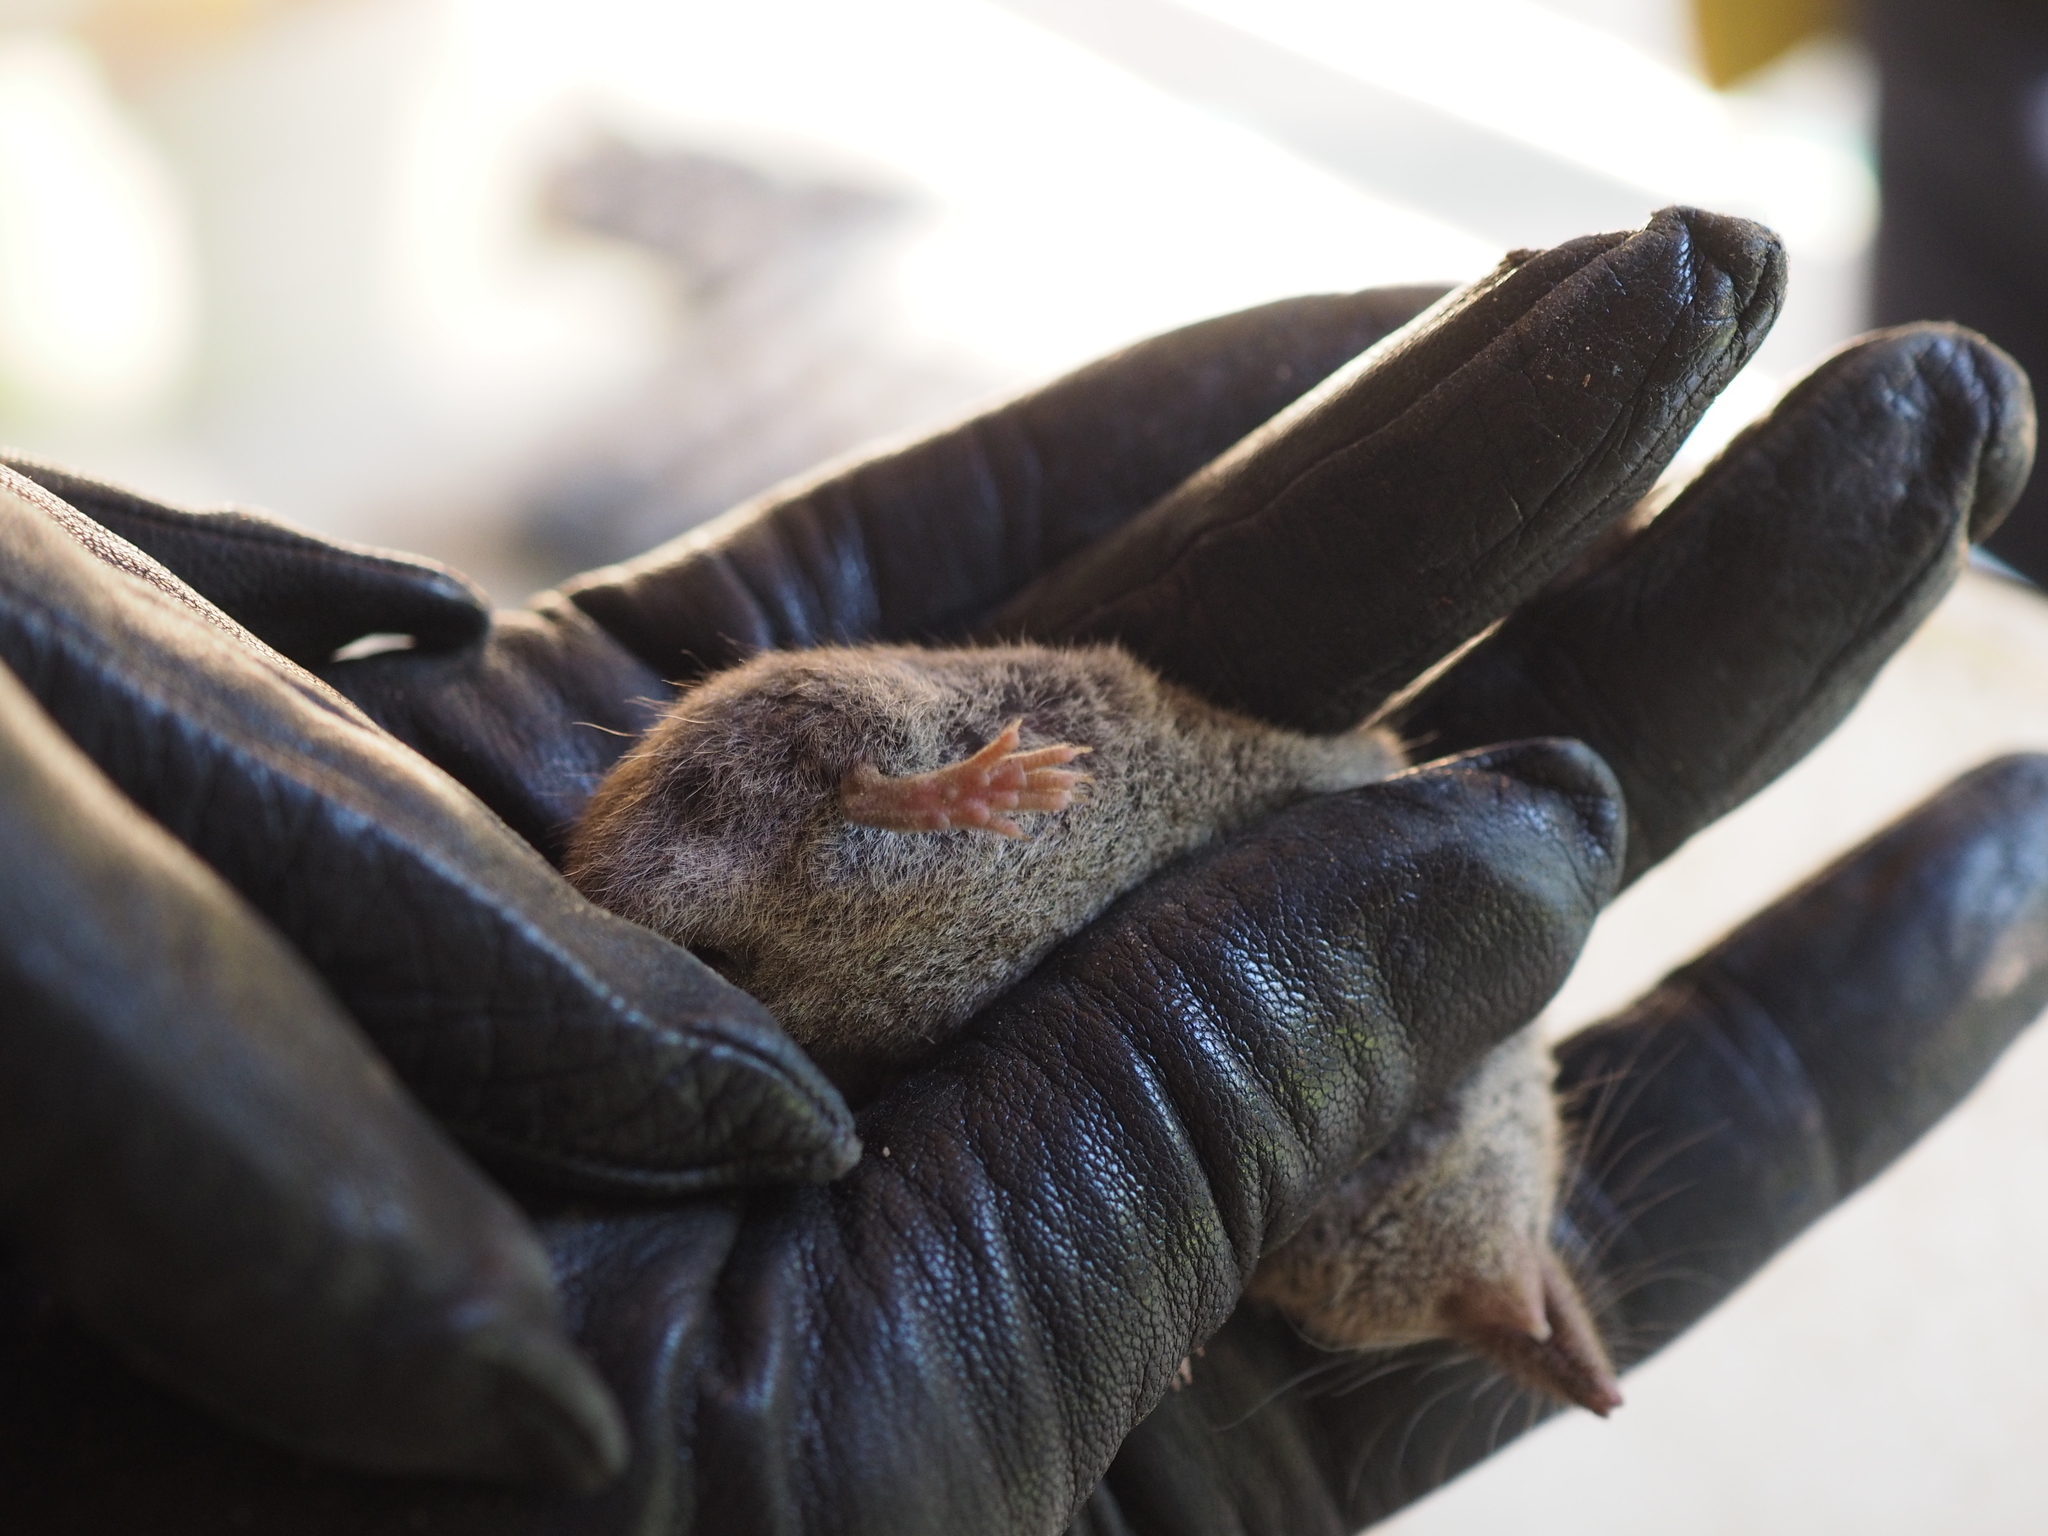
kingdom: Animalia
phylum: Chordata
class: Mammalia
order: Soricomorpha
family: Soricidae
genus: Crocidura
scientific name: Crocidura russula
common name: Greater white-toothed shrew
